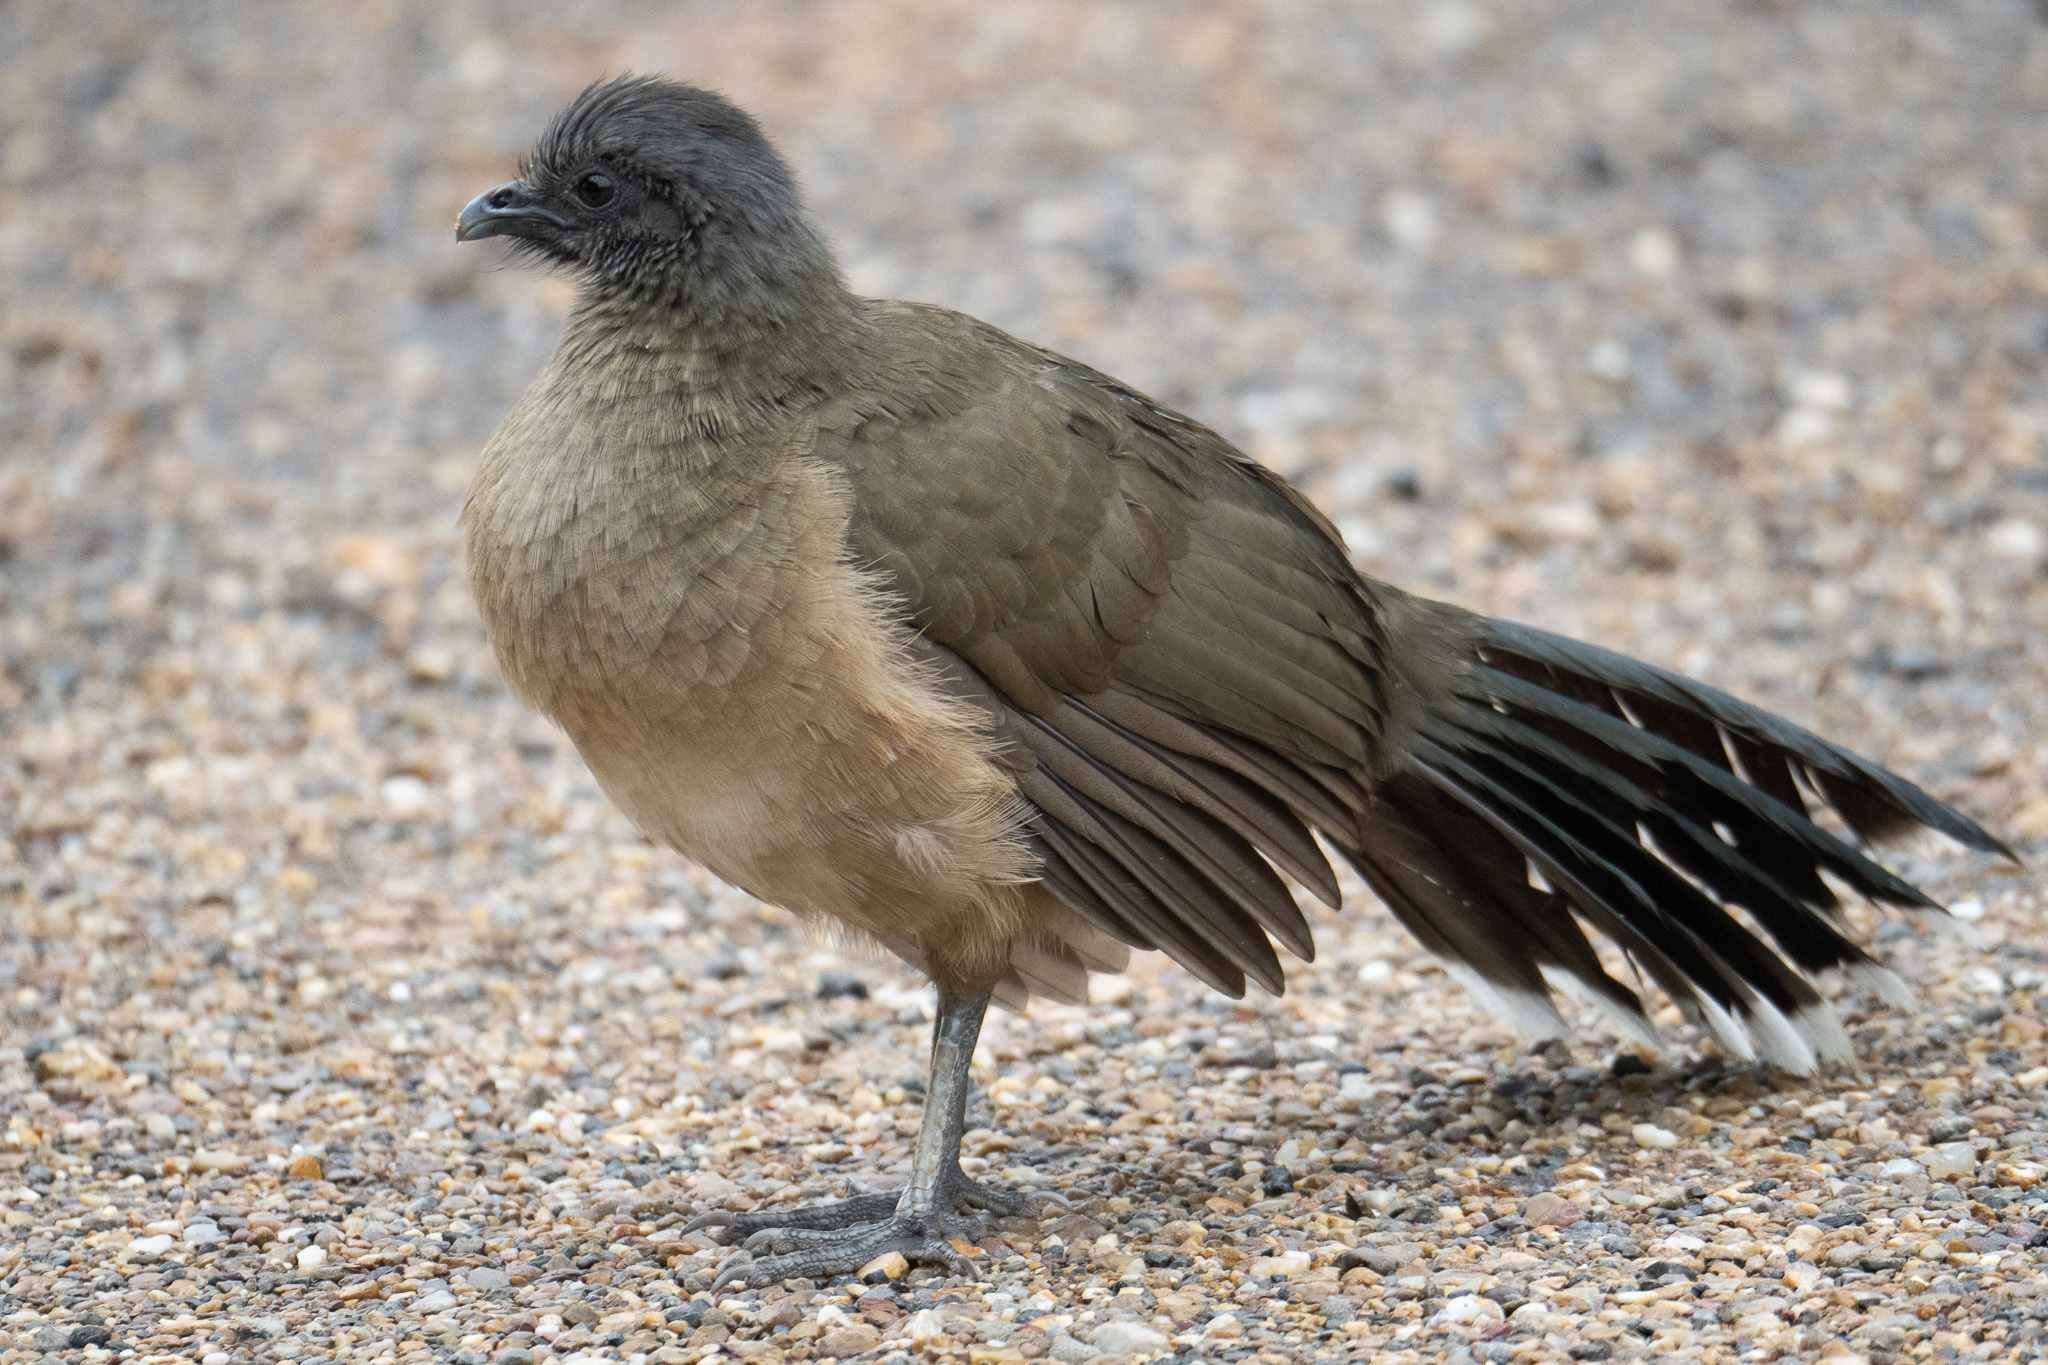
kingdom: Animalia
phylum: Chordata
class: Aves
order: Galliformes
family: Cracidae
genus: Ortalis
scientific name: Ortalis vetula
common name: Plain chachalaca
